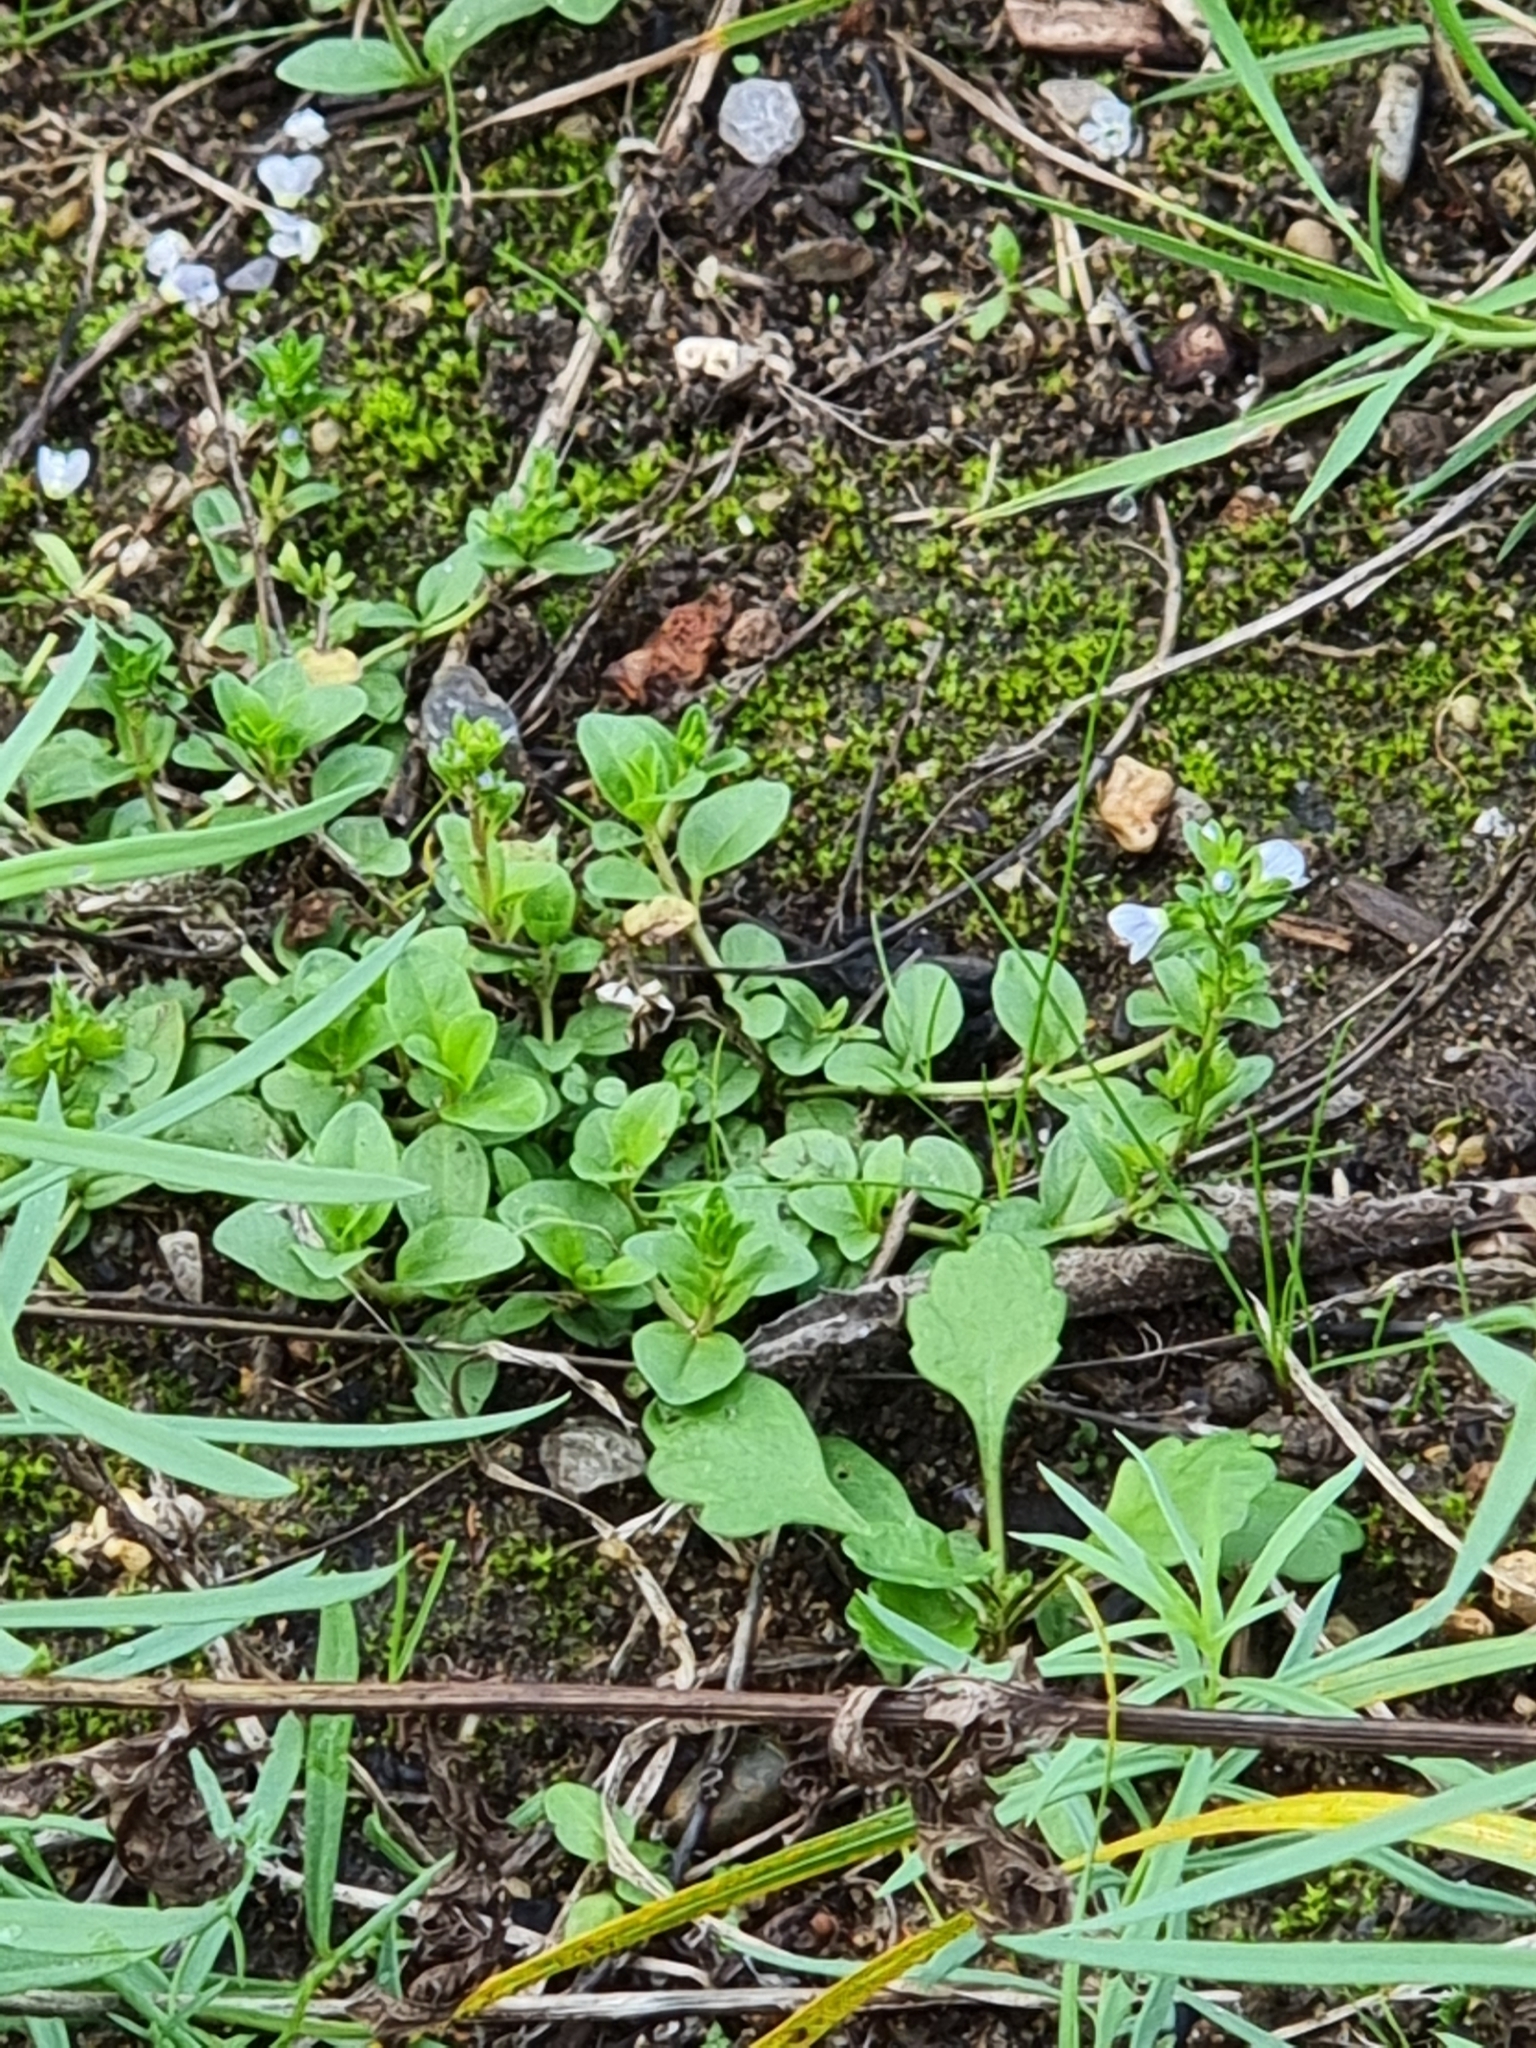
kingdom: Plantae
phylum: Tracheophyta
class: Magnoliopsida
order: Lamiales
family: Plantaginaceae
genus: Veronica
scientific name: Veronica serpyllifolia
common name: Thyme-leaved speedwell
